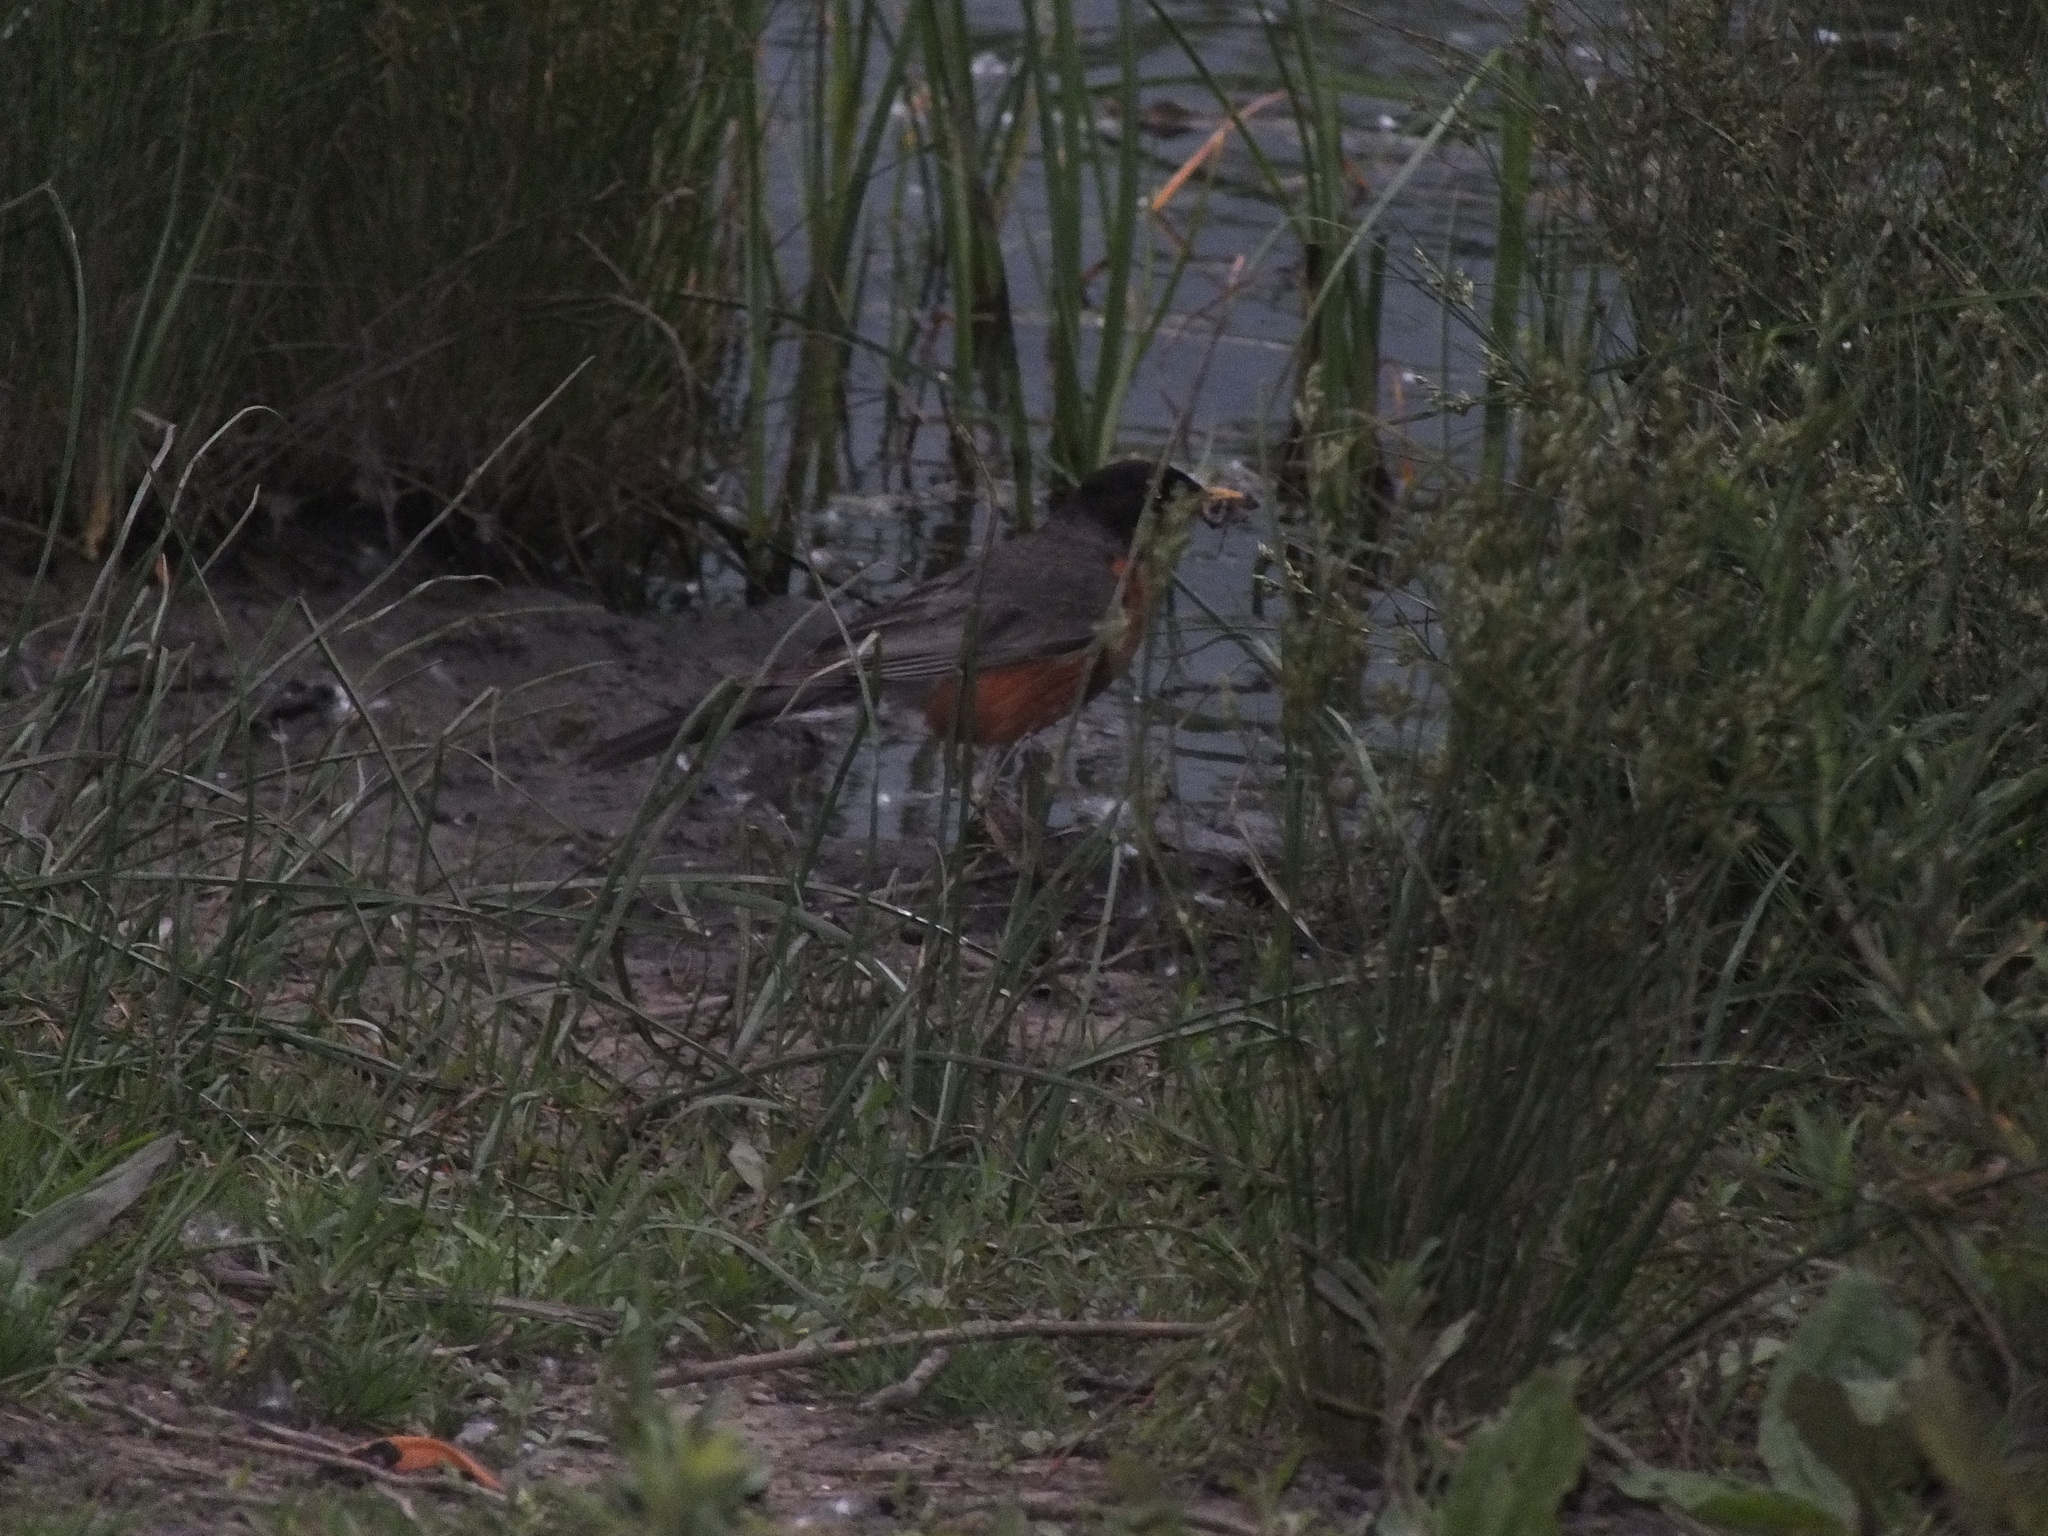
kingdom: Animalia
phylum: Chordata
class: Aves
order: Passeriformes
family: Turdidae
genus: Turdus
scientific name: Turdus migratorius
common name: American robin
